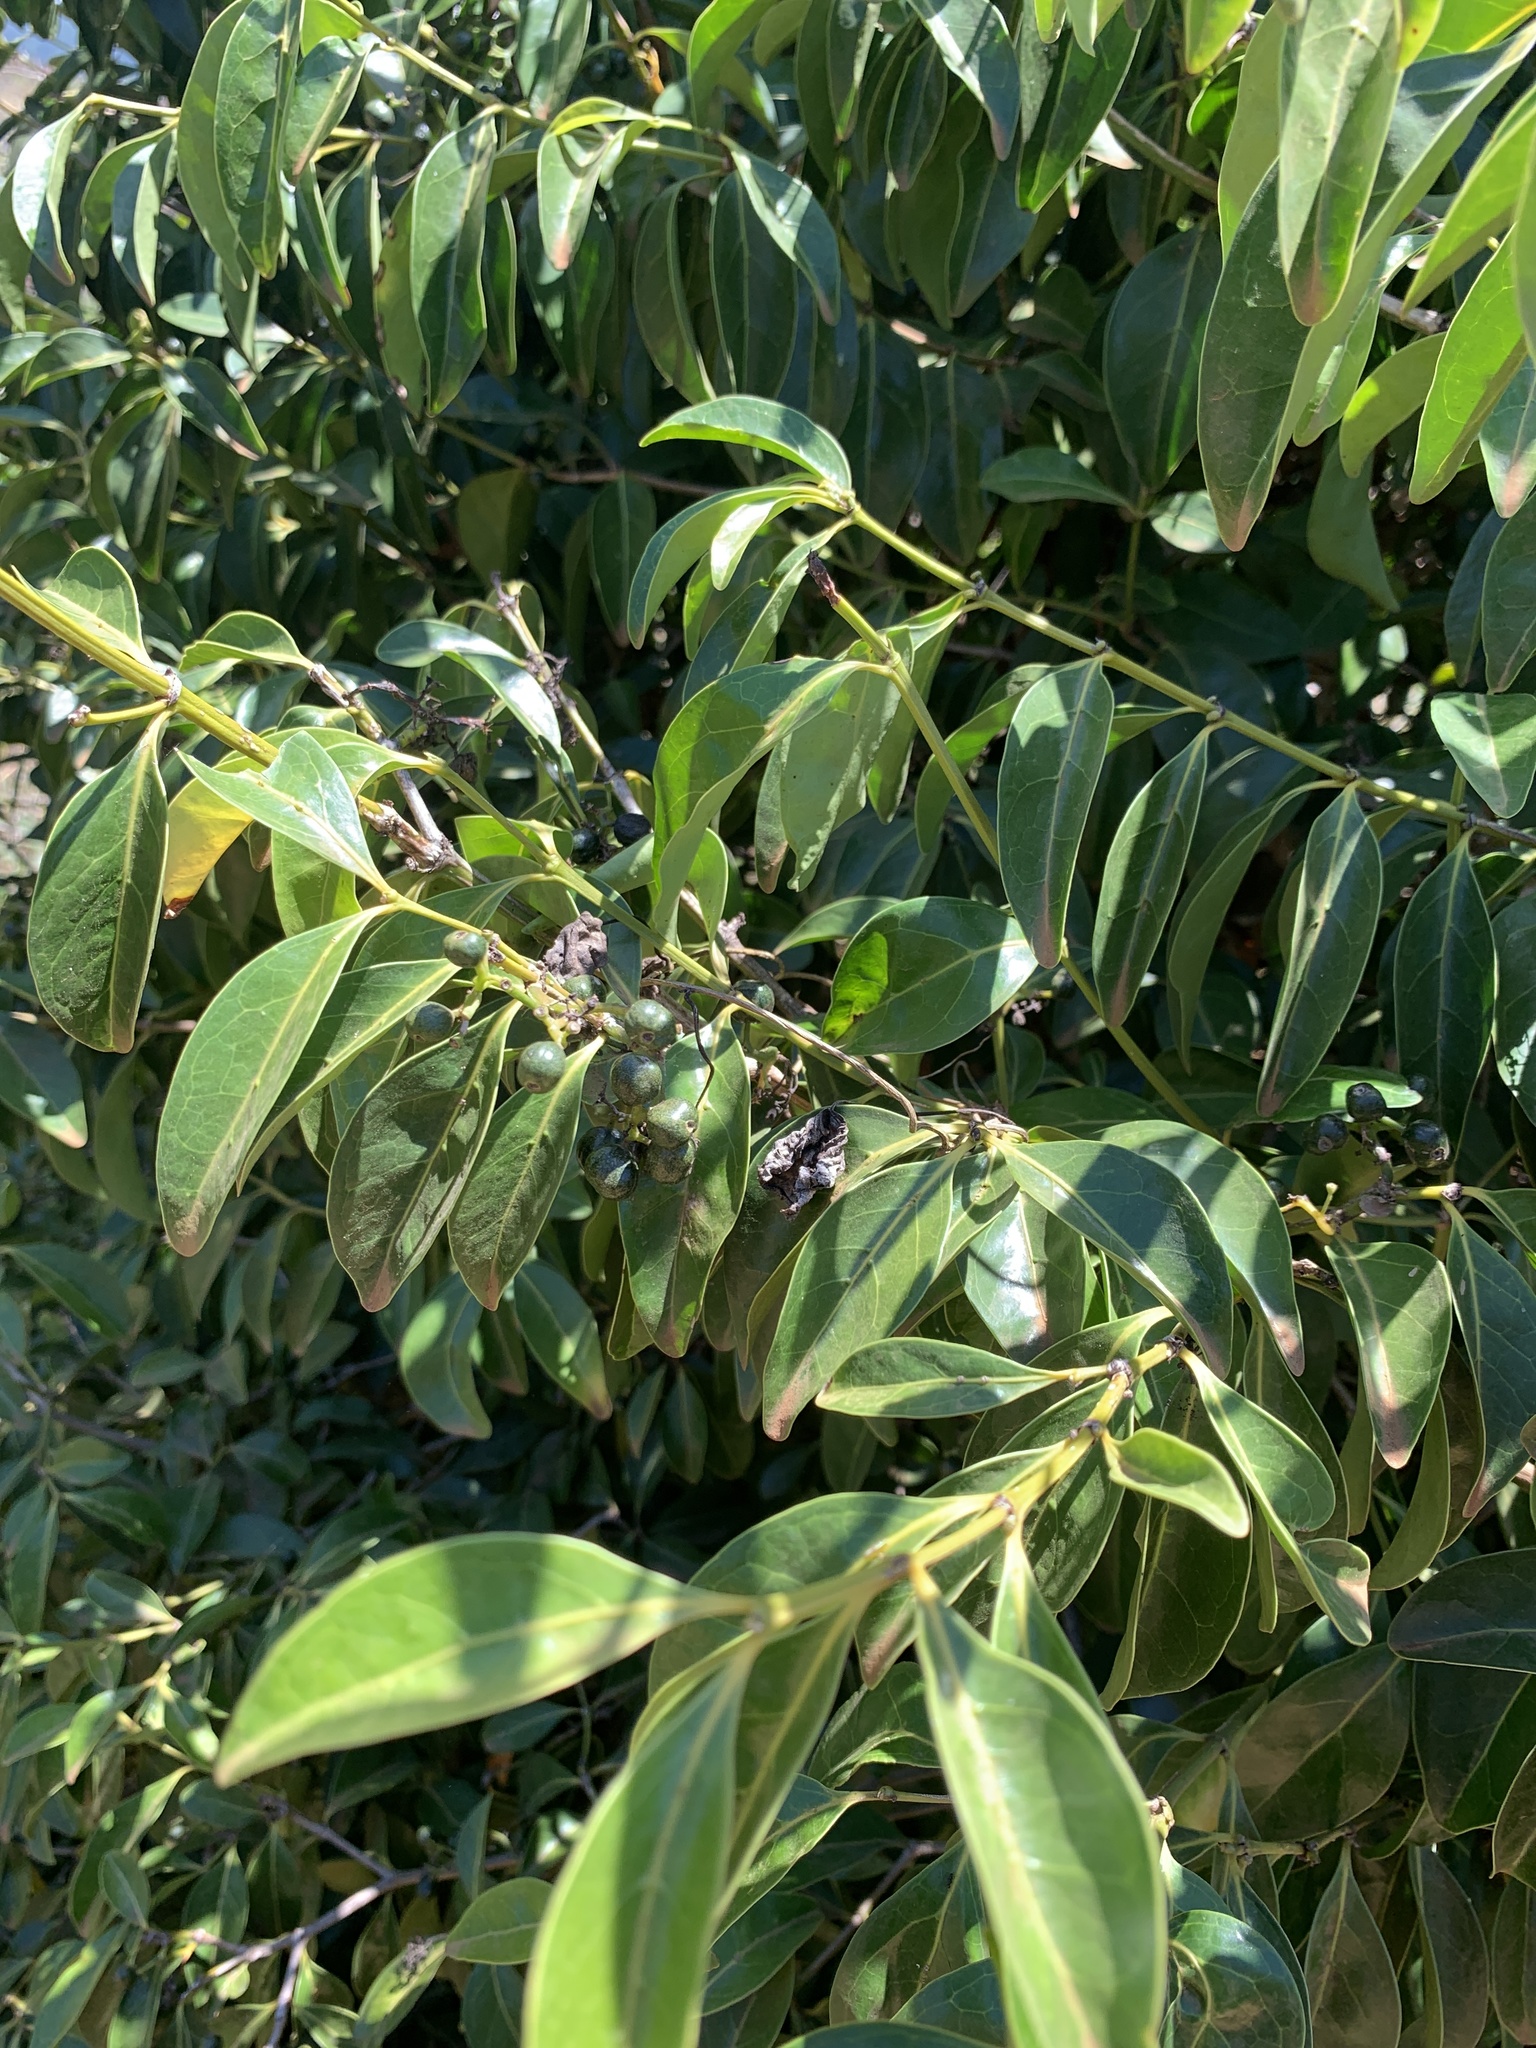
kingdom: Plantae
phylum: Tracheophyta
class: Magnoliopsida
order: Gentianales
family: Rubiaceae
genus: Psydrax
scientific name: Psydrax odoratus
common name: Alahe'e
